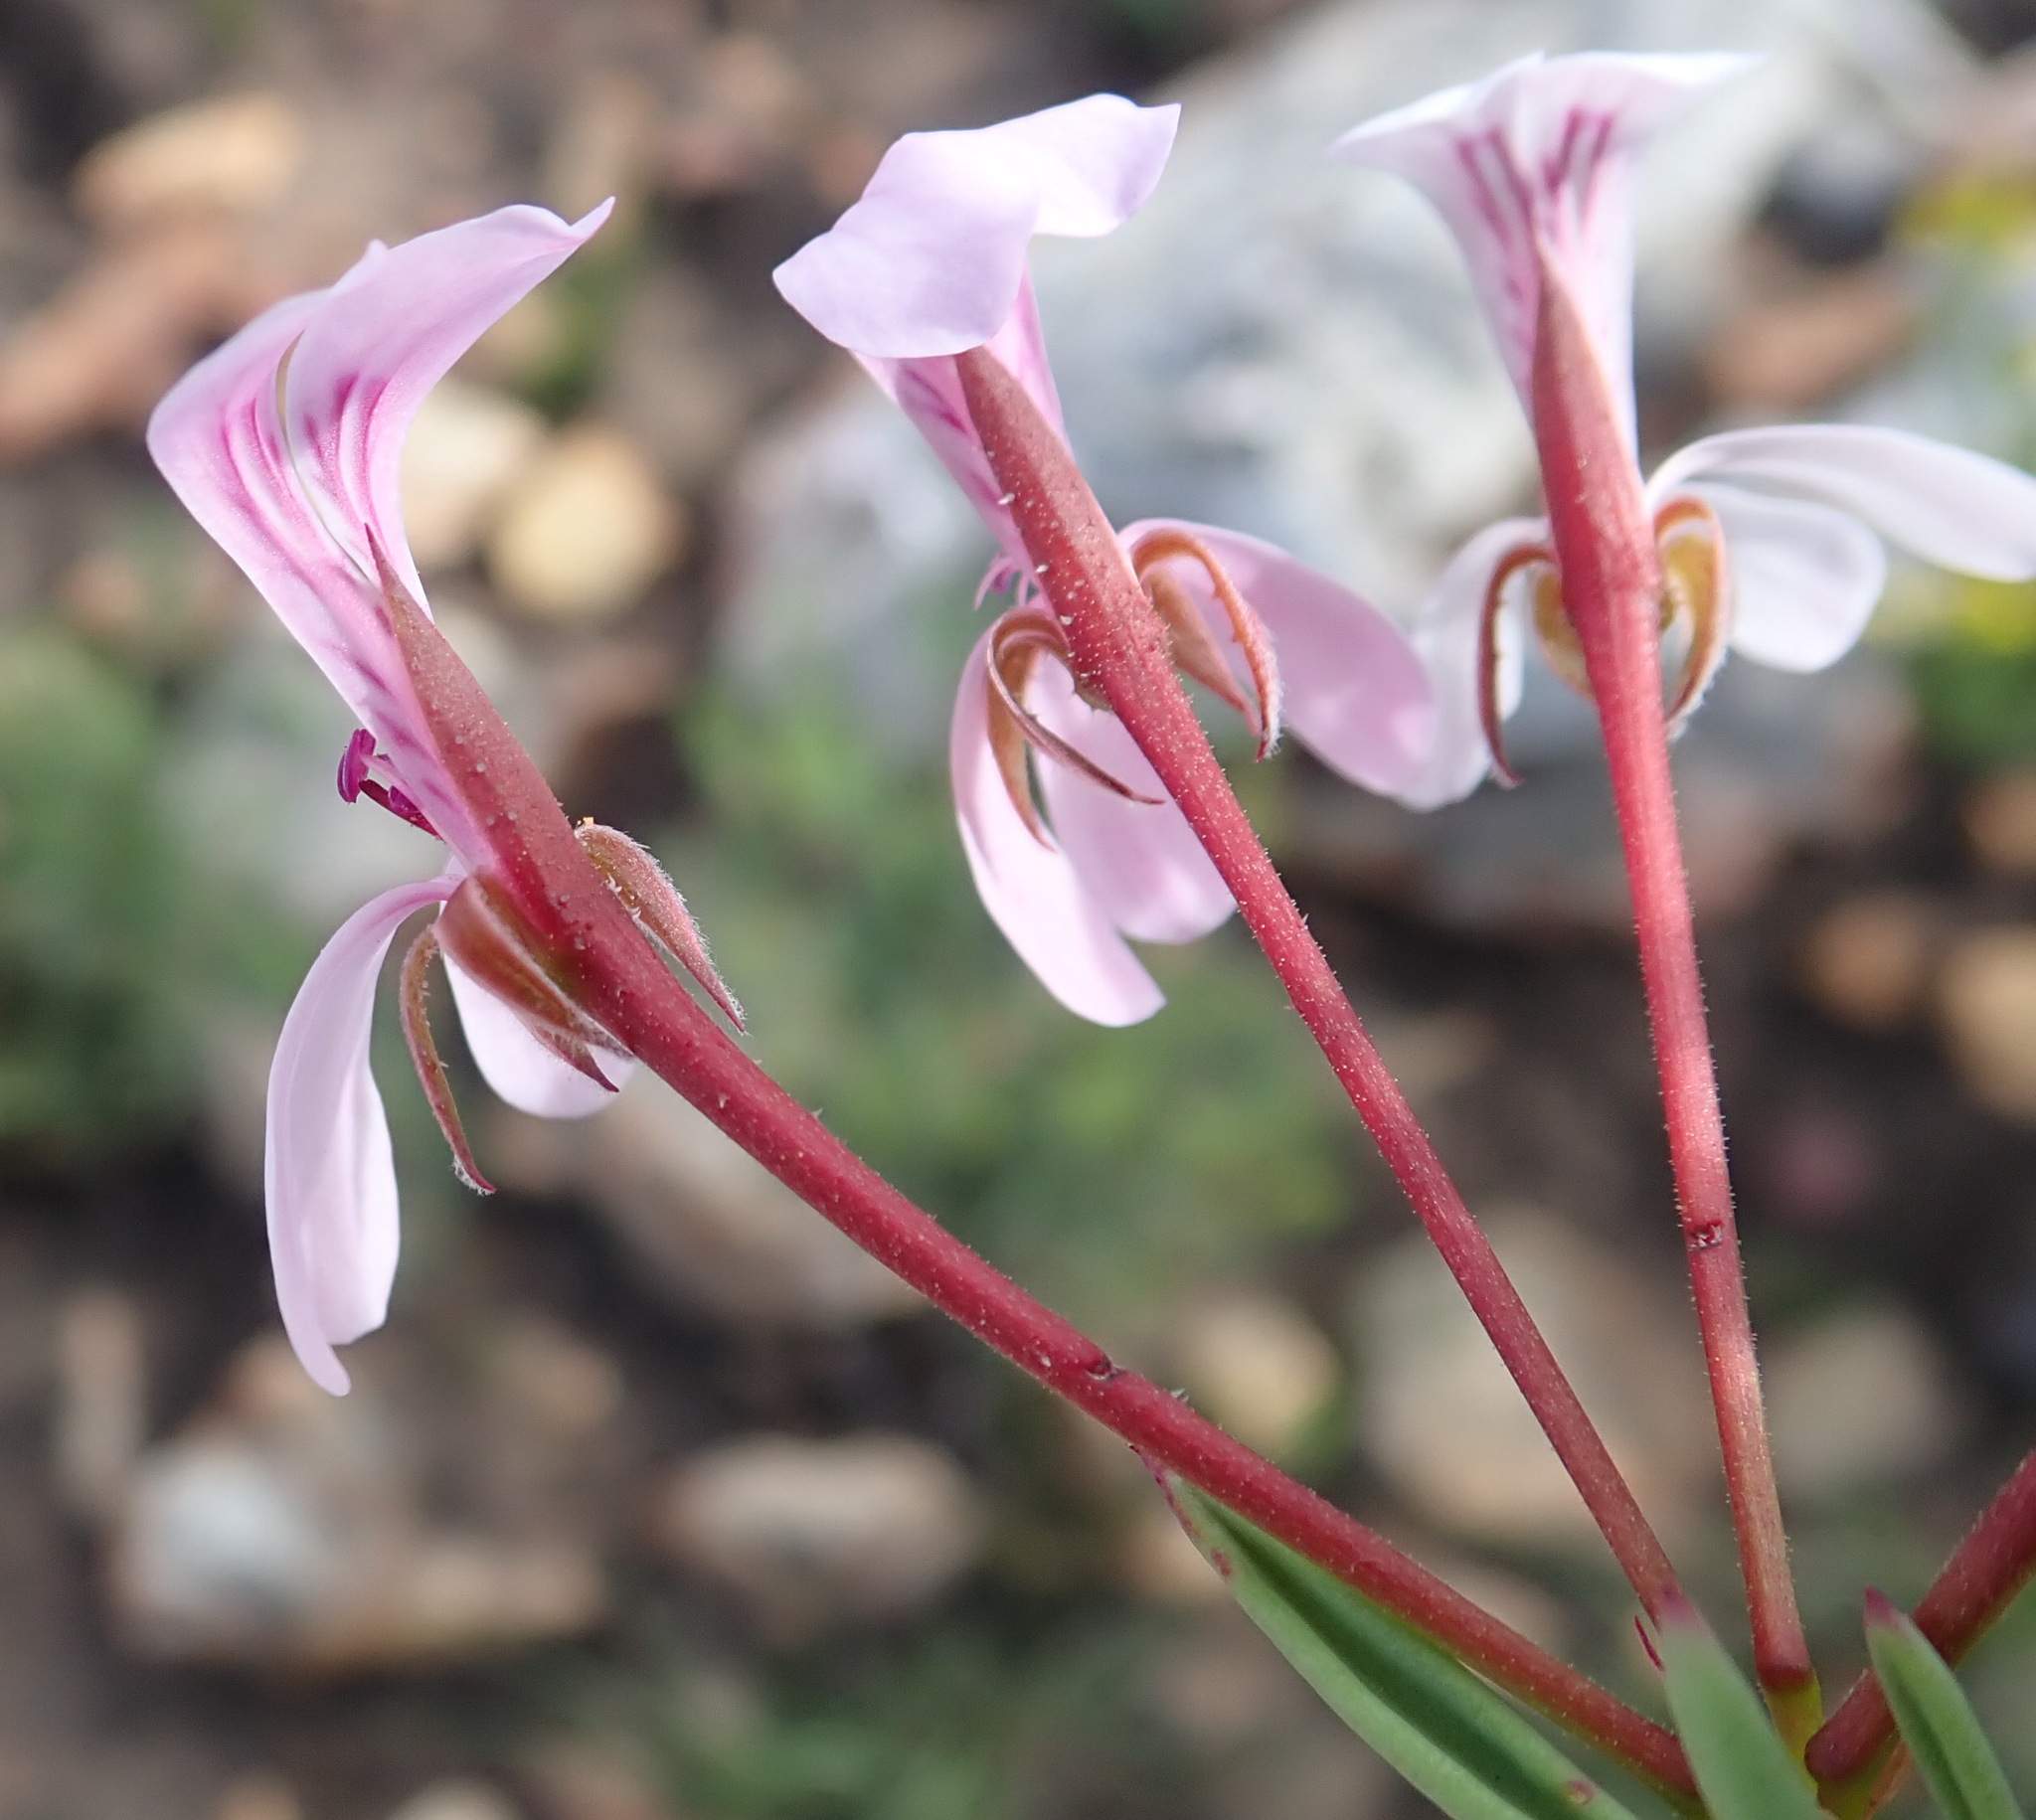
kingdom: Plantae
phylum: Tracheophyta
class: Magnoliopsida
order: Geraniales
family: Geraniaceae
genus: Pelargonium
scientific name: Pelargonium laevigatum
